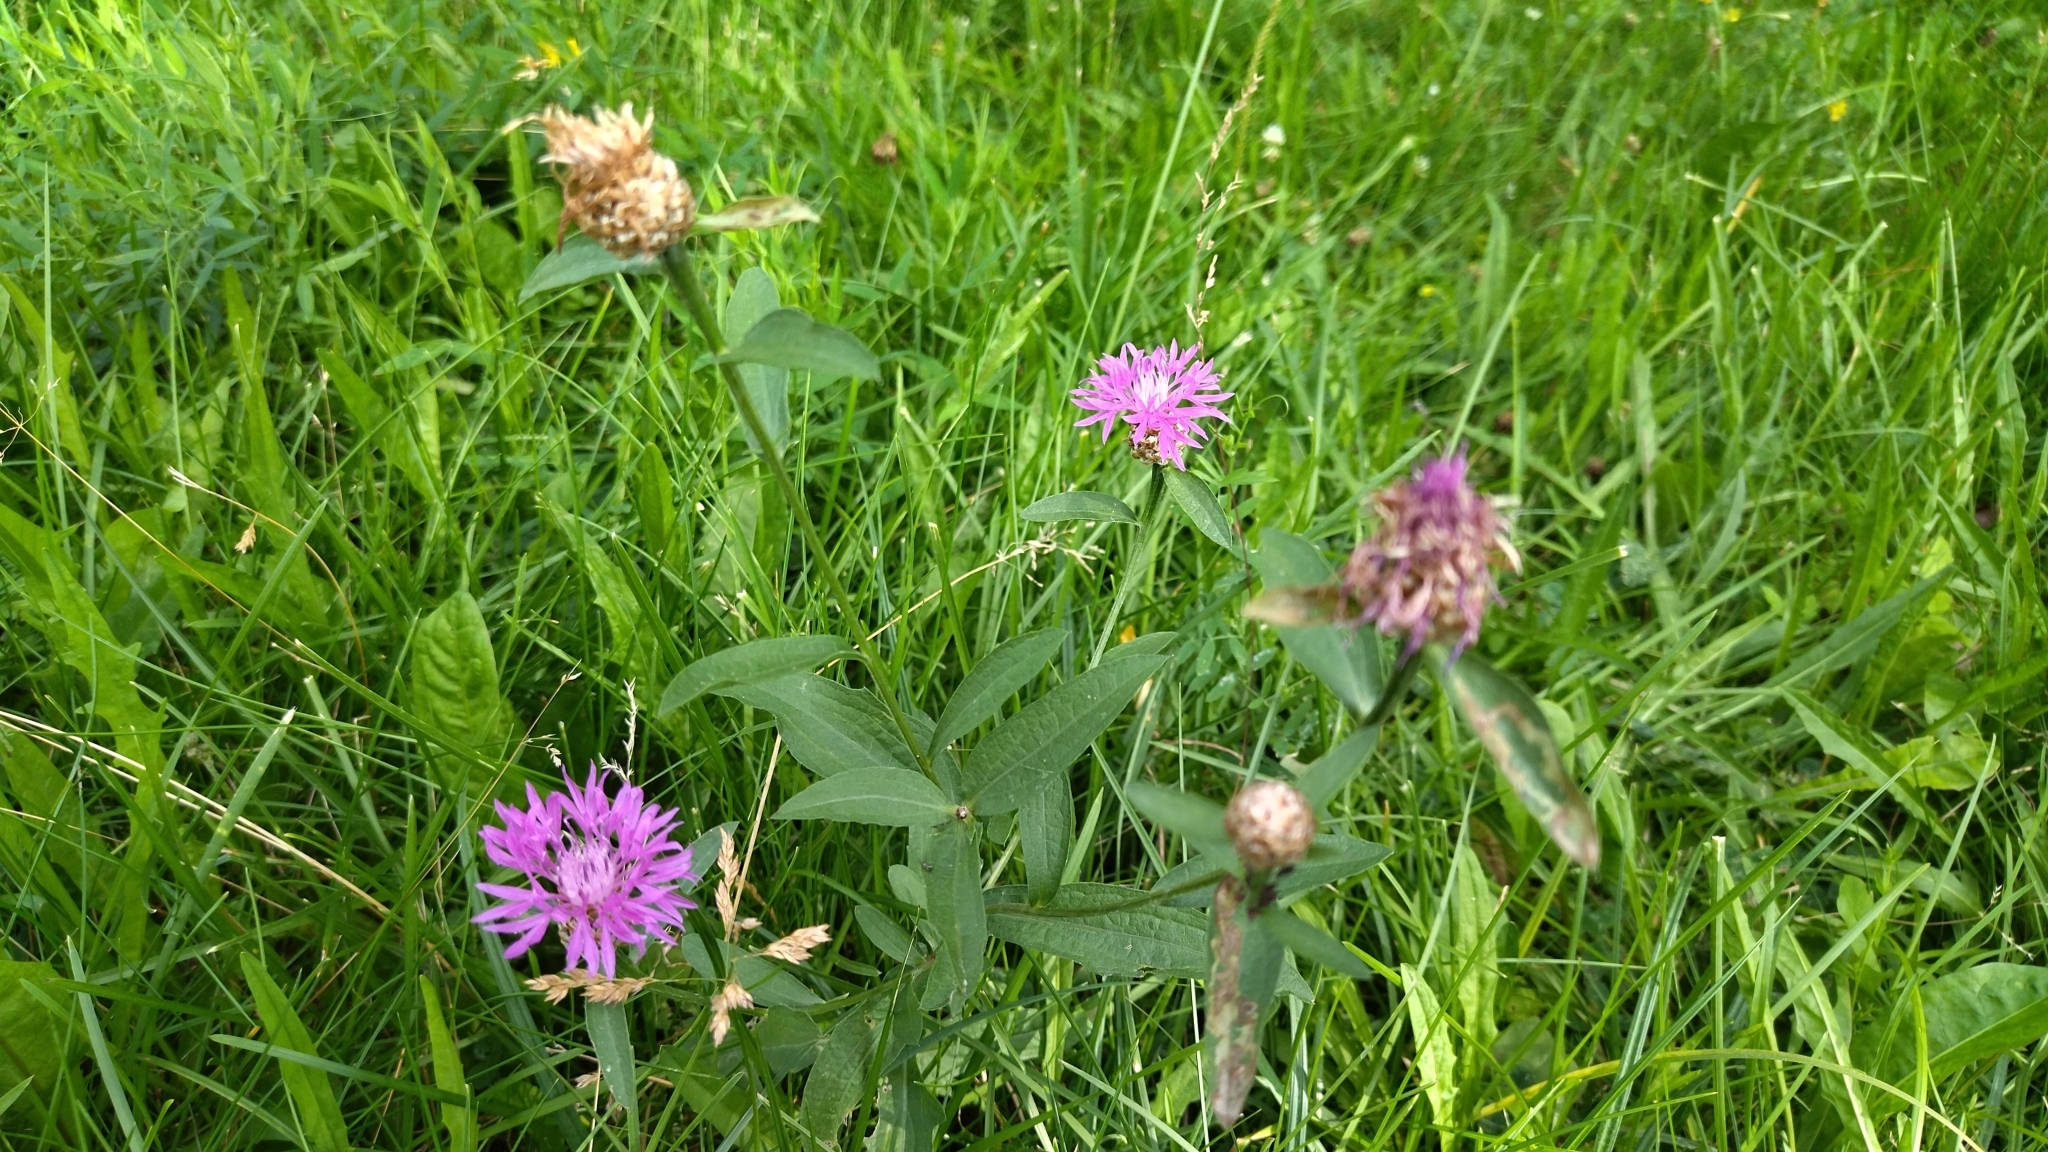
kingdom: Plantae
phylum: Tracheophyta
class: Magnoliopsida
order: Asterales
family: Asteraceae
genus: Centaurea
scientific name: Centaurea jacea
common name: Brown knapweed
